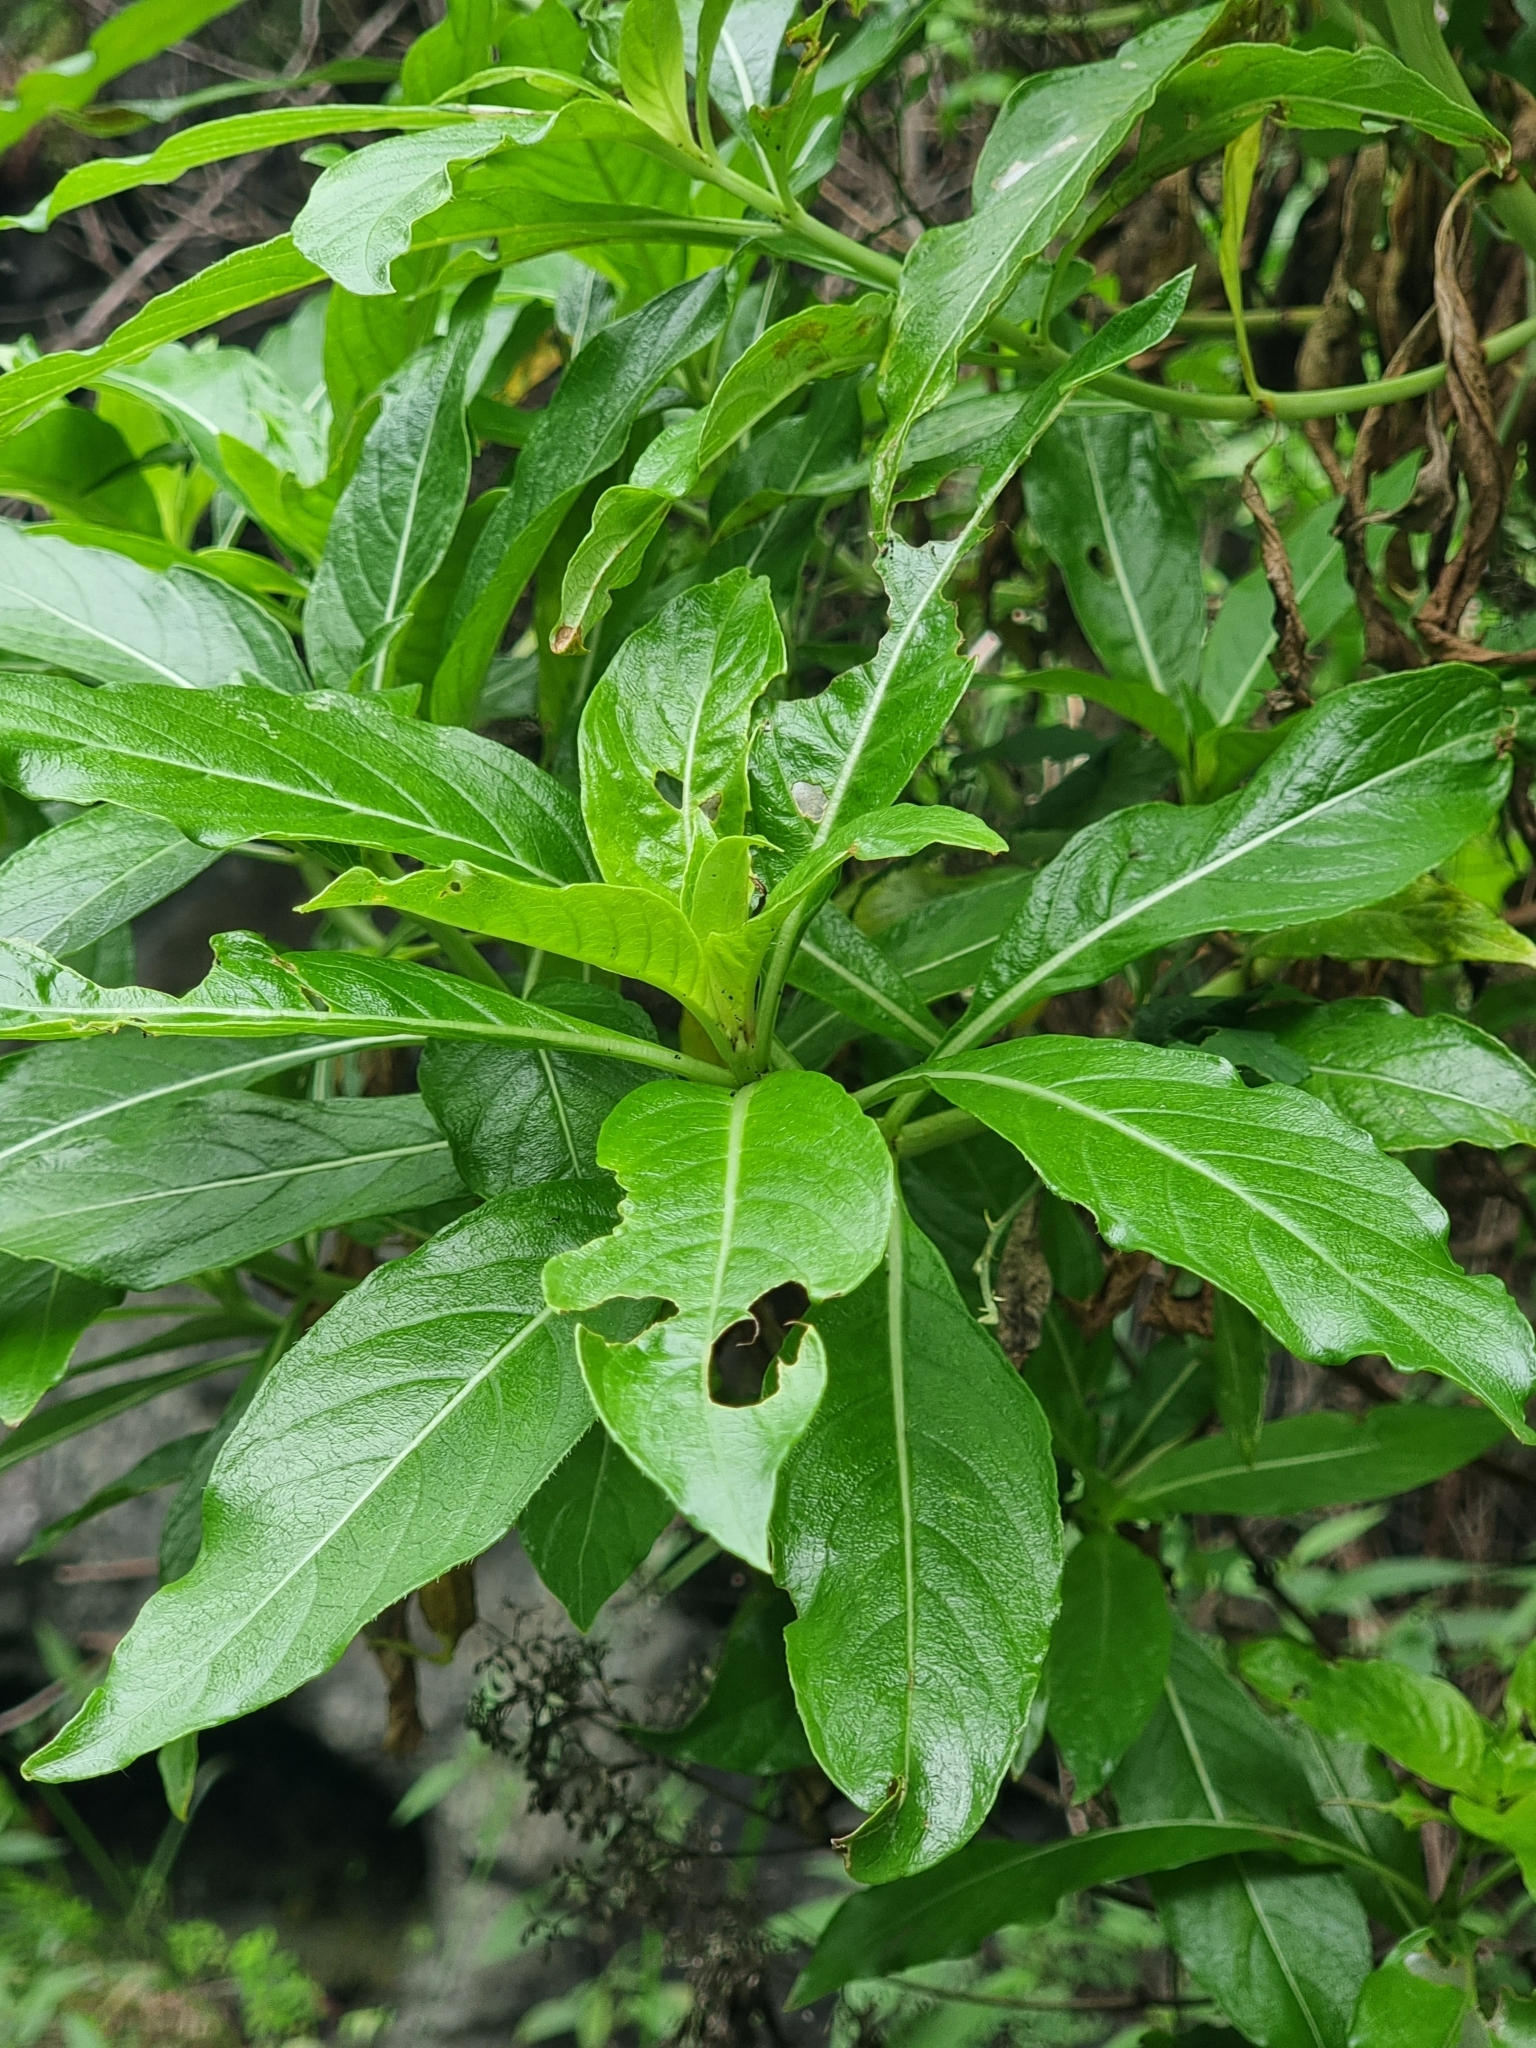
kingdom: Plantae
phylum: Tracheophyta
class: Magnoliopsida
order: Gentianales
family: Rubiaceae
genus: Phyllis
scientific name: Phyllis nobla
